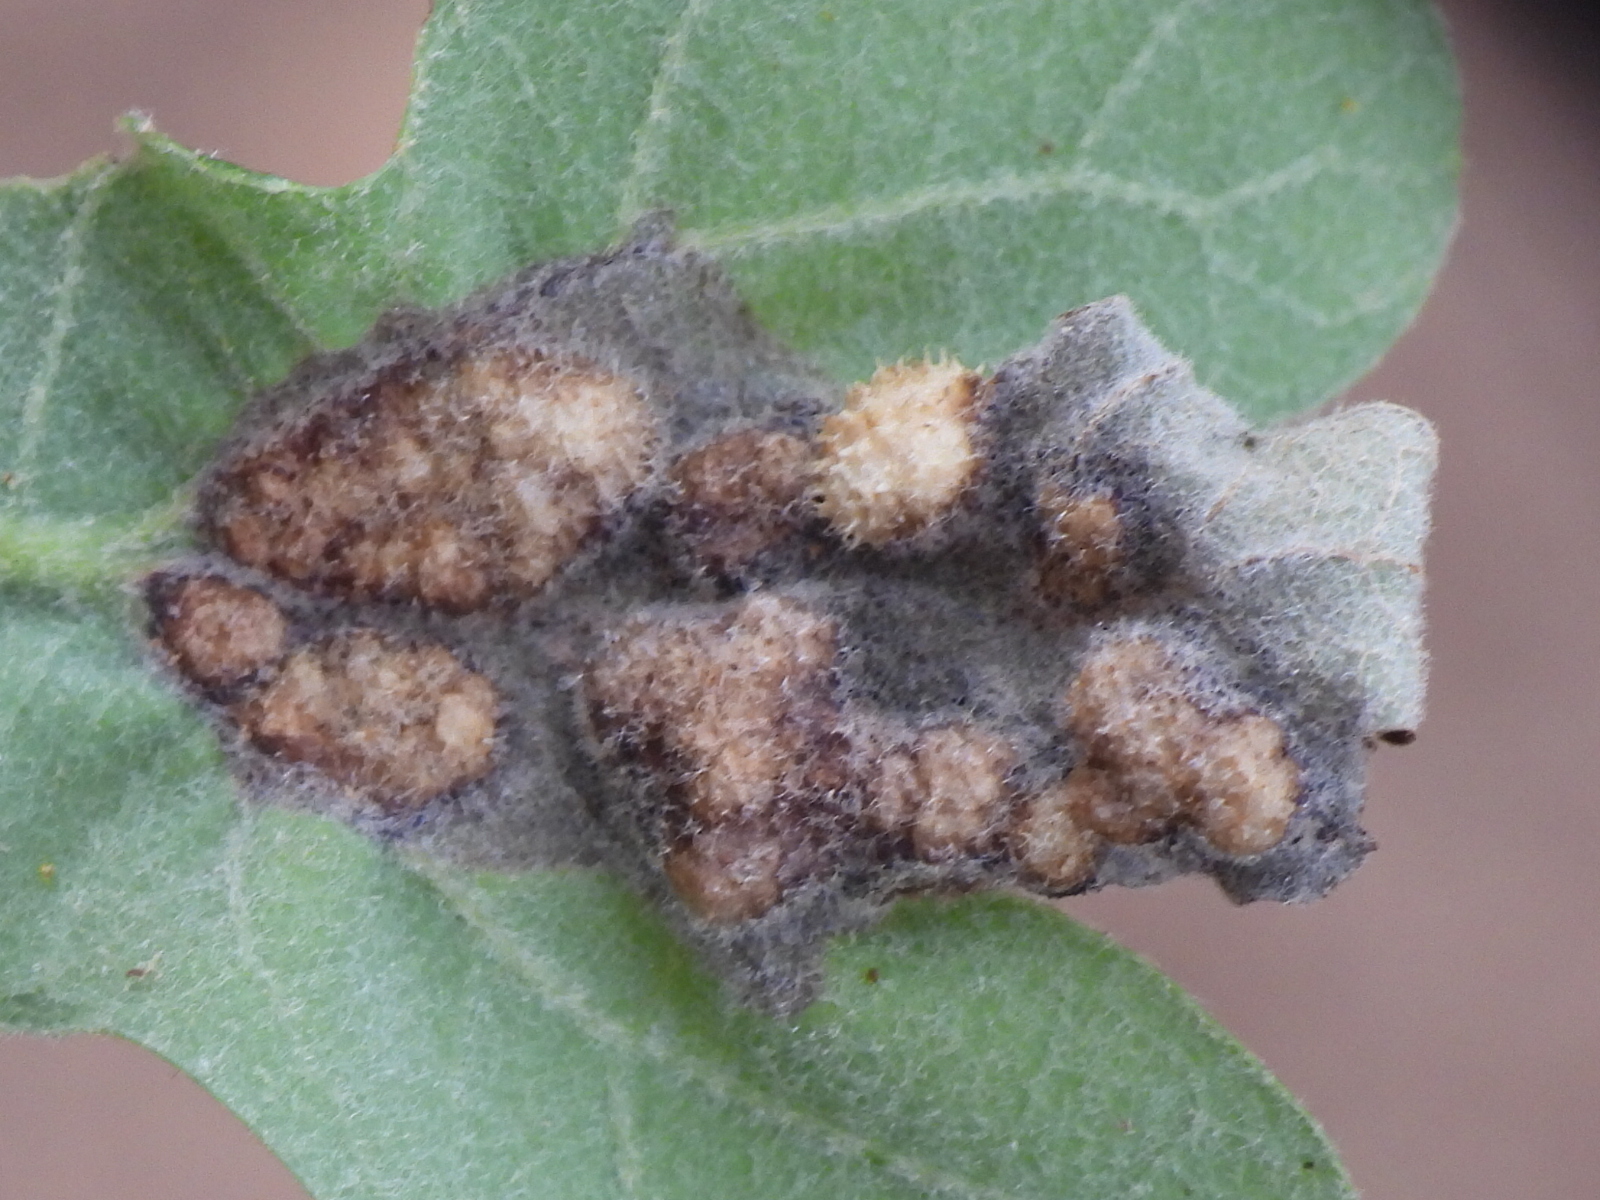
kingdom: Animalia
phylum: Arthropoda
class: Insecta
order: Hymenoptera
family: Cynipidae
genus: Neuroterus
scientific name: Neuroterus quercusirregularis
